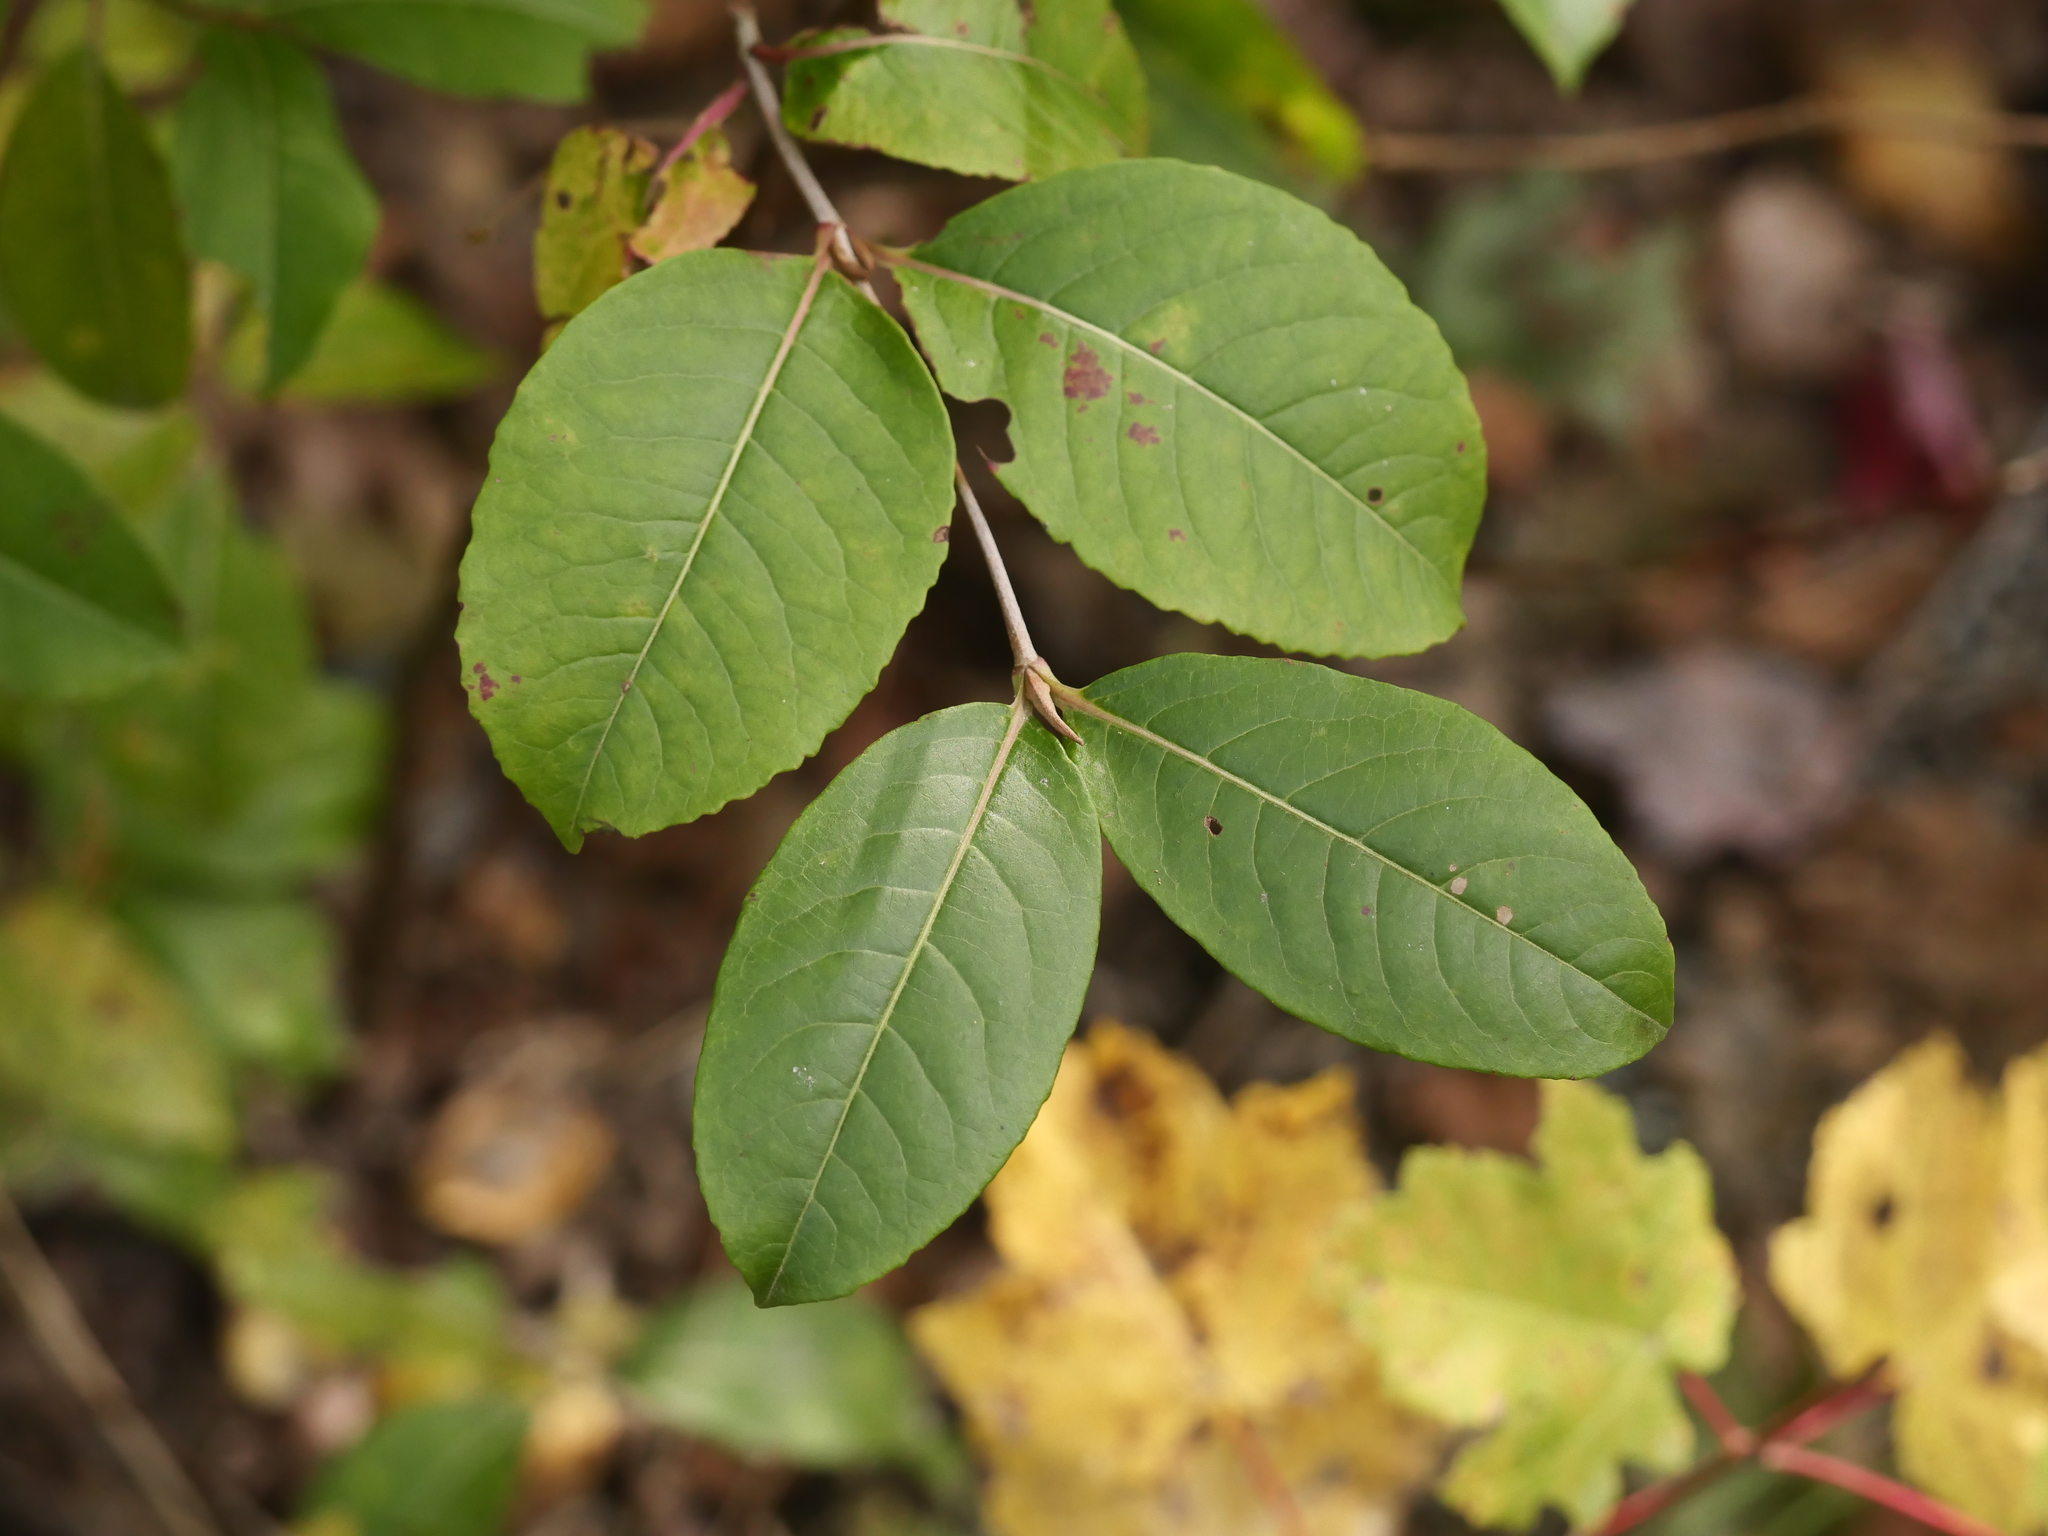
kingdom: Plantae
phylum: Tracheophyta
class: Magnoliopsida
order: Dipsacales
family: Viburnaceae
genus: Viburnum
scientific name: Viburnum cassinoides
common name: Swamp haw
